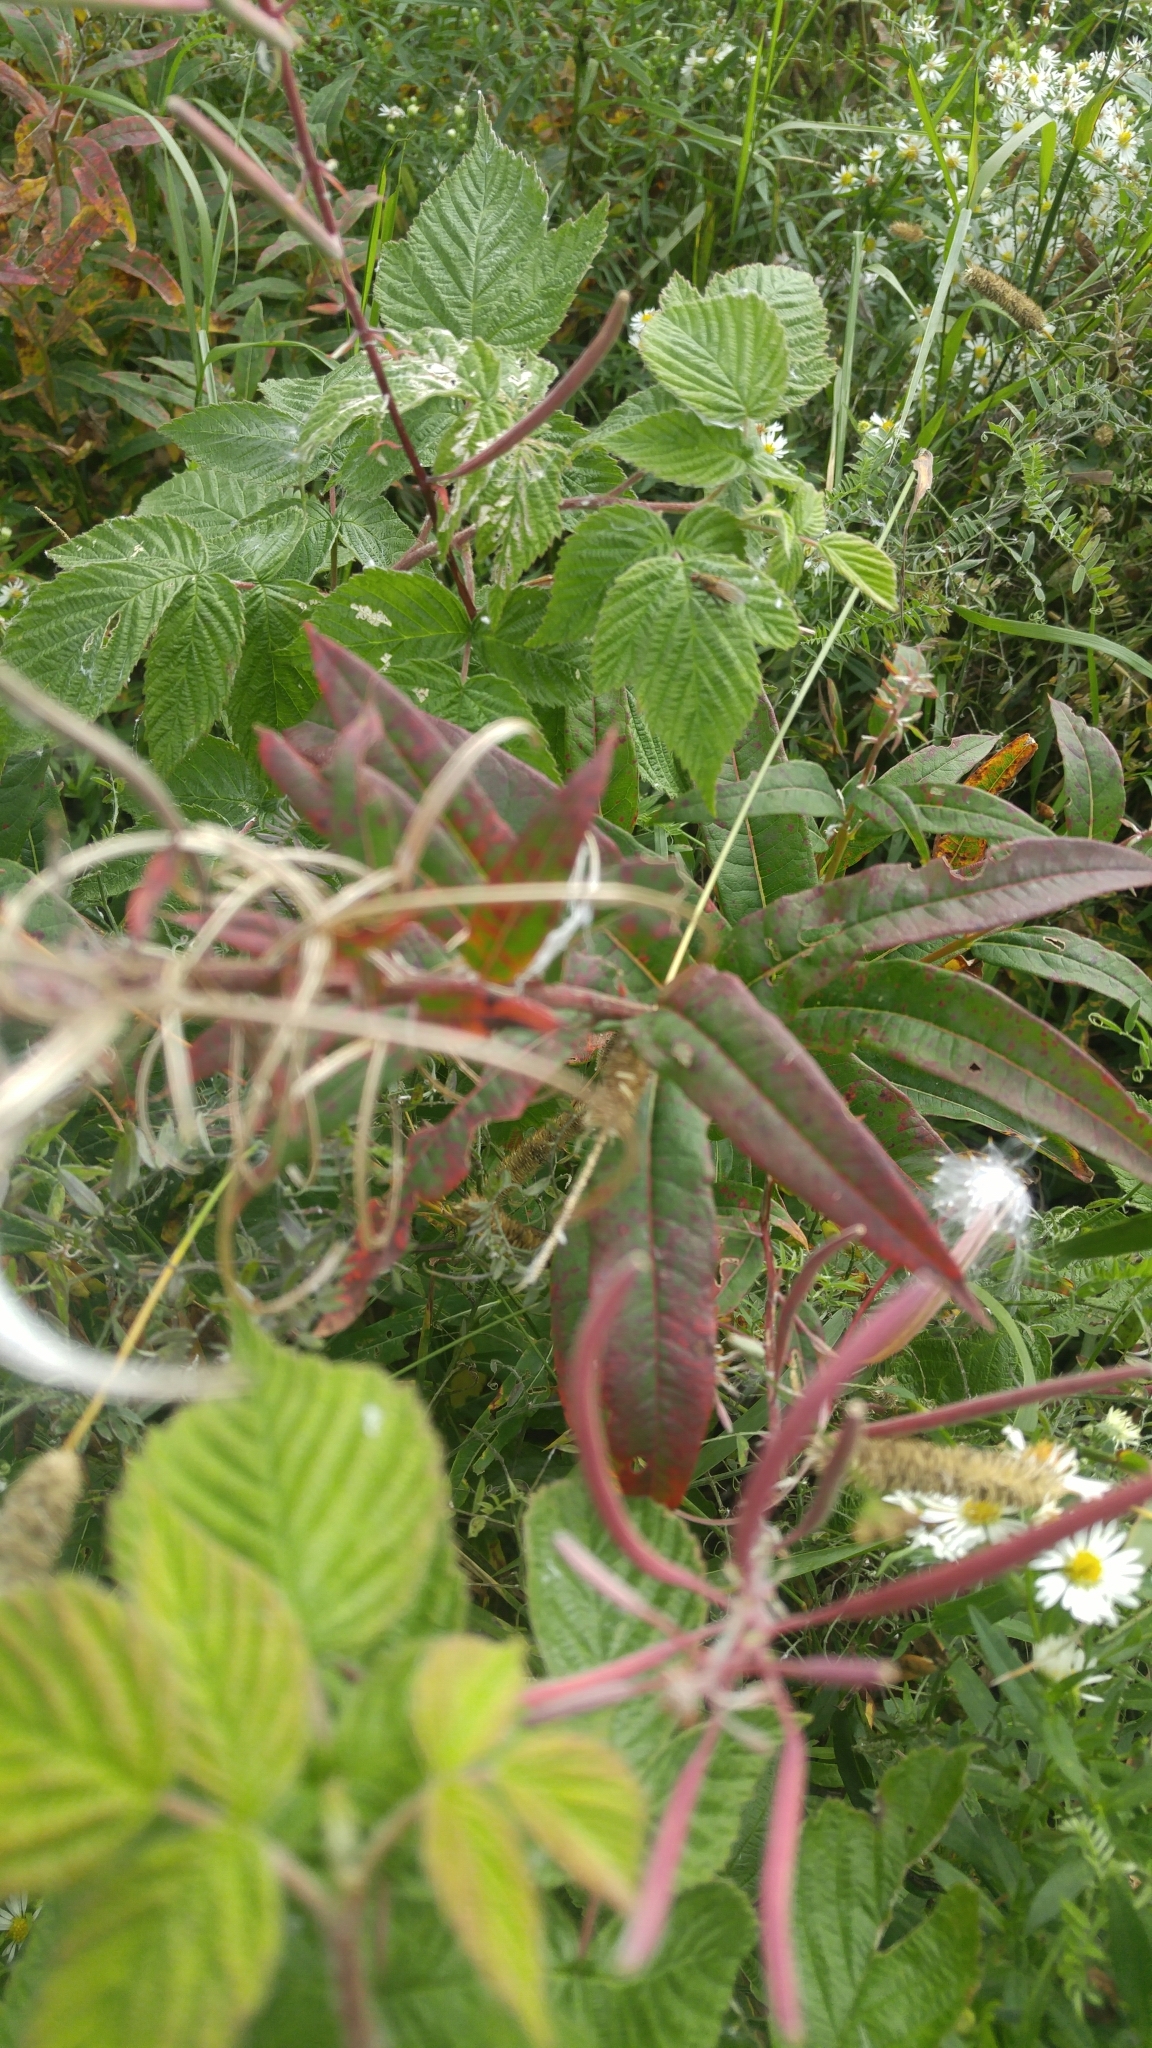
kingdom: Plantae
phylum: Tracheophyta
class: Magnoliopsida
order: Myrtales
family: Onagraceae
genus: Chamaenerion
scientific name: Chamaenerion angustifolium
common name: Fireweed
